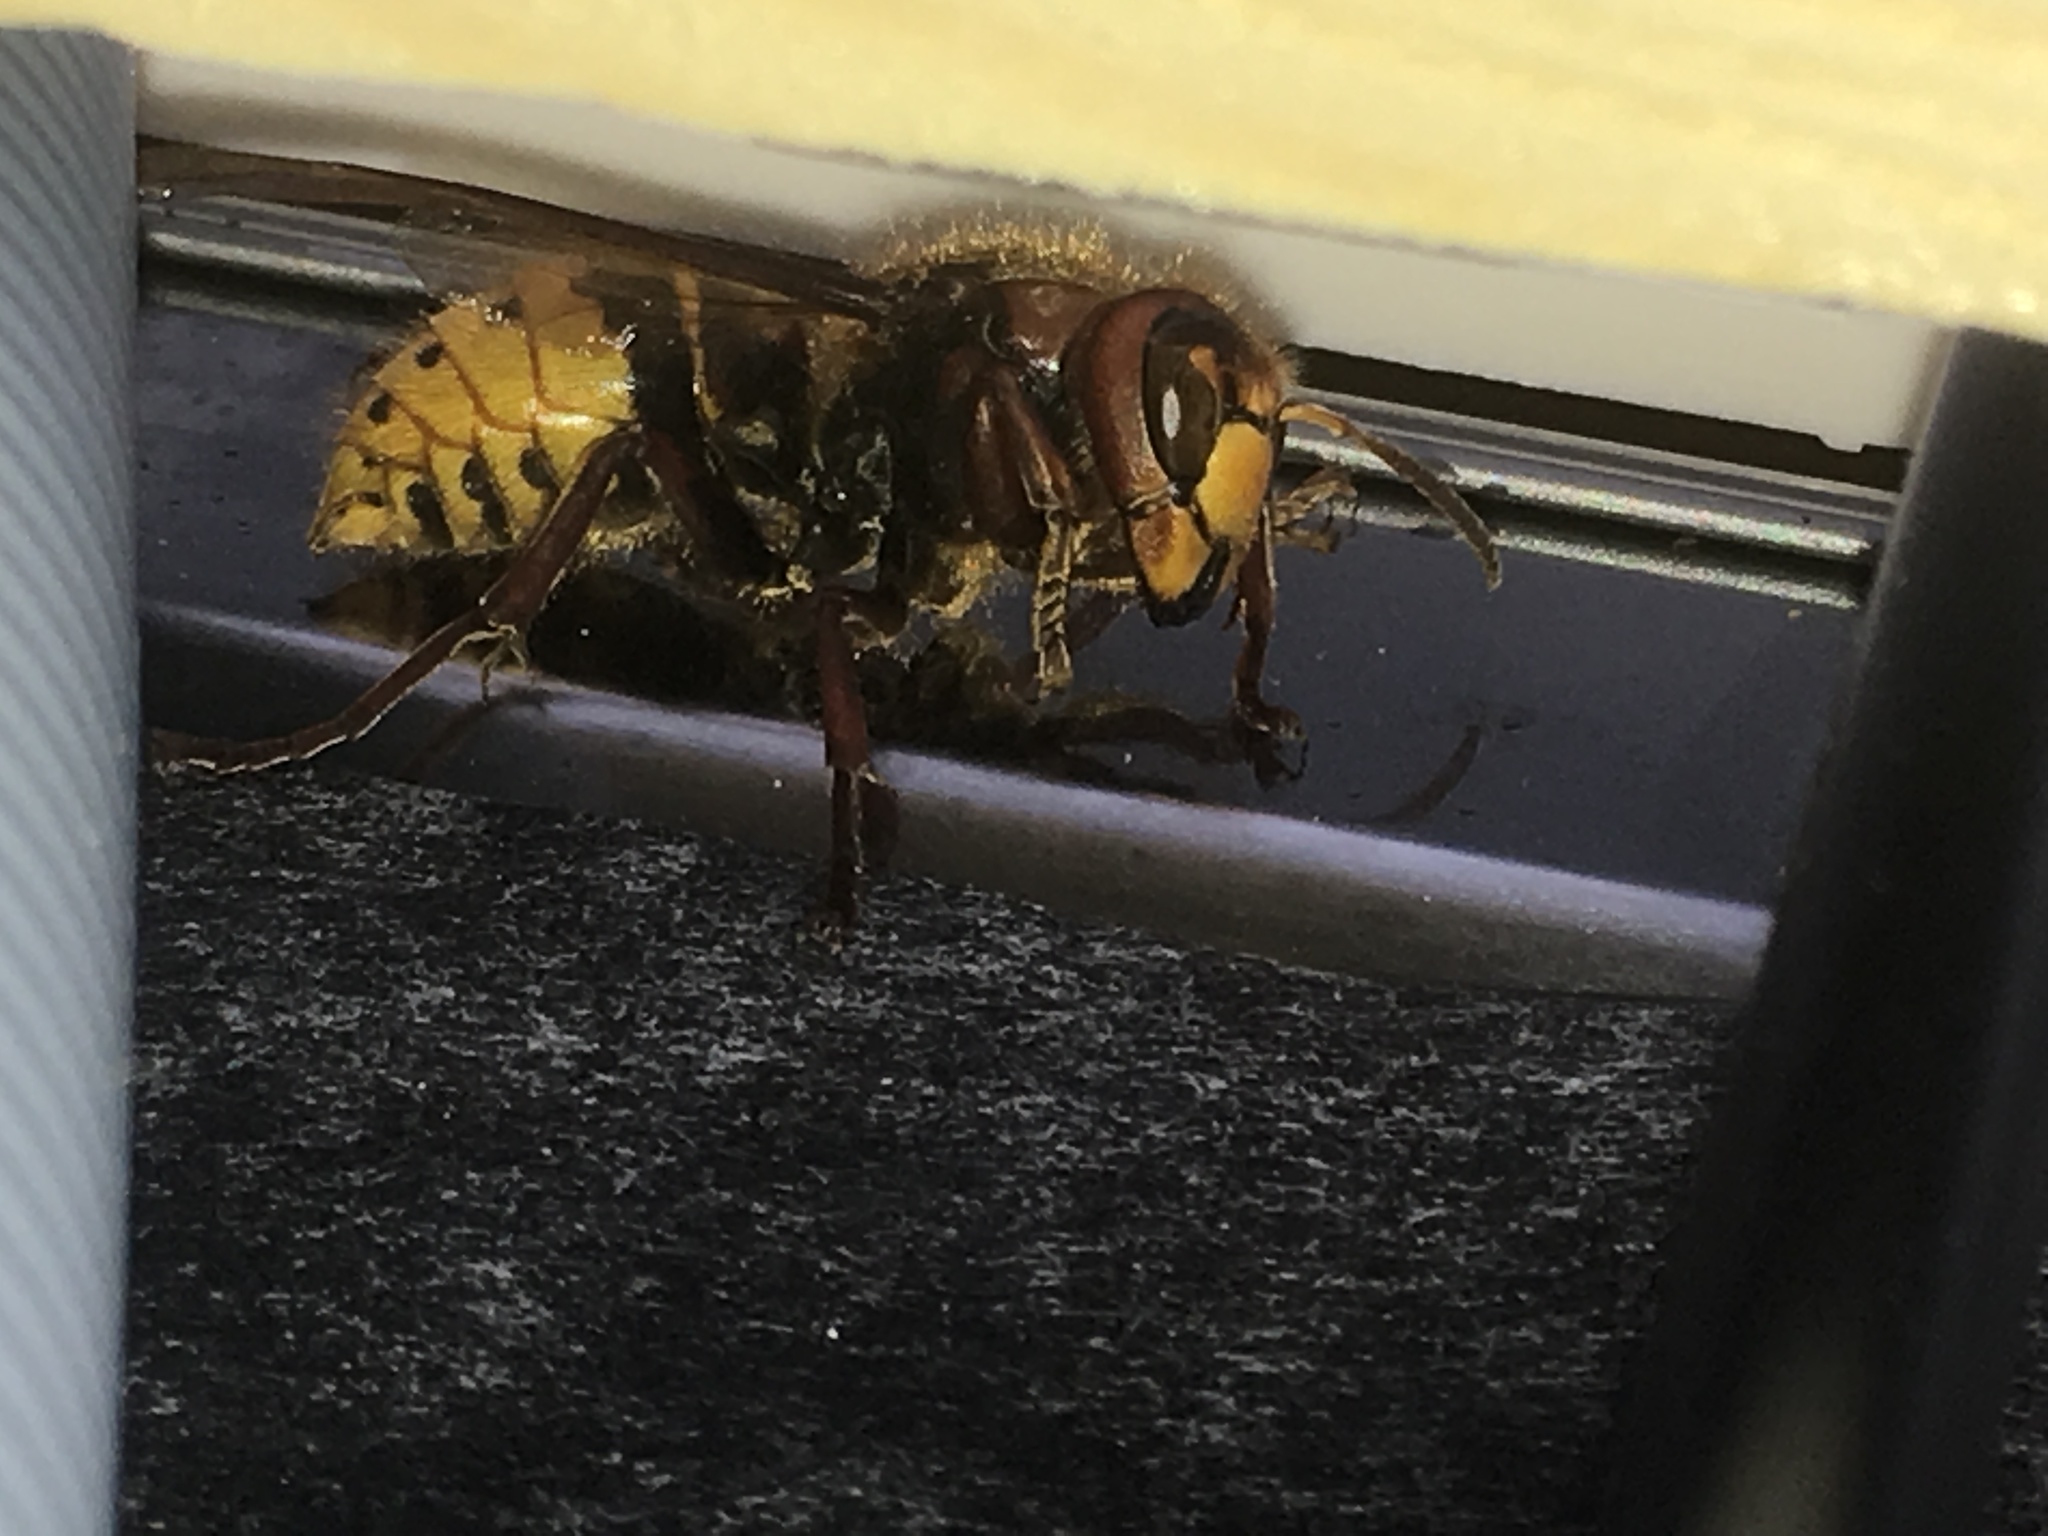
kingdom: Animalia
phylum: Arthropoda
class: Insecta
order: Hymenoptera
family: Vespidae
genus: Vespa
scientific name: Vespa crabro
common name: Hornet
